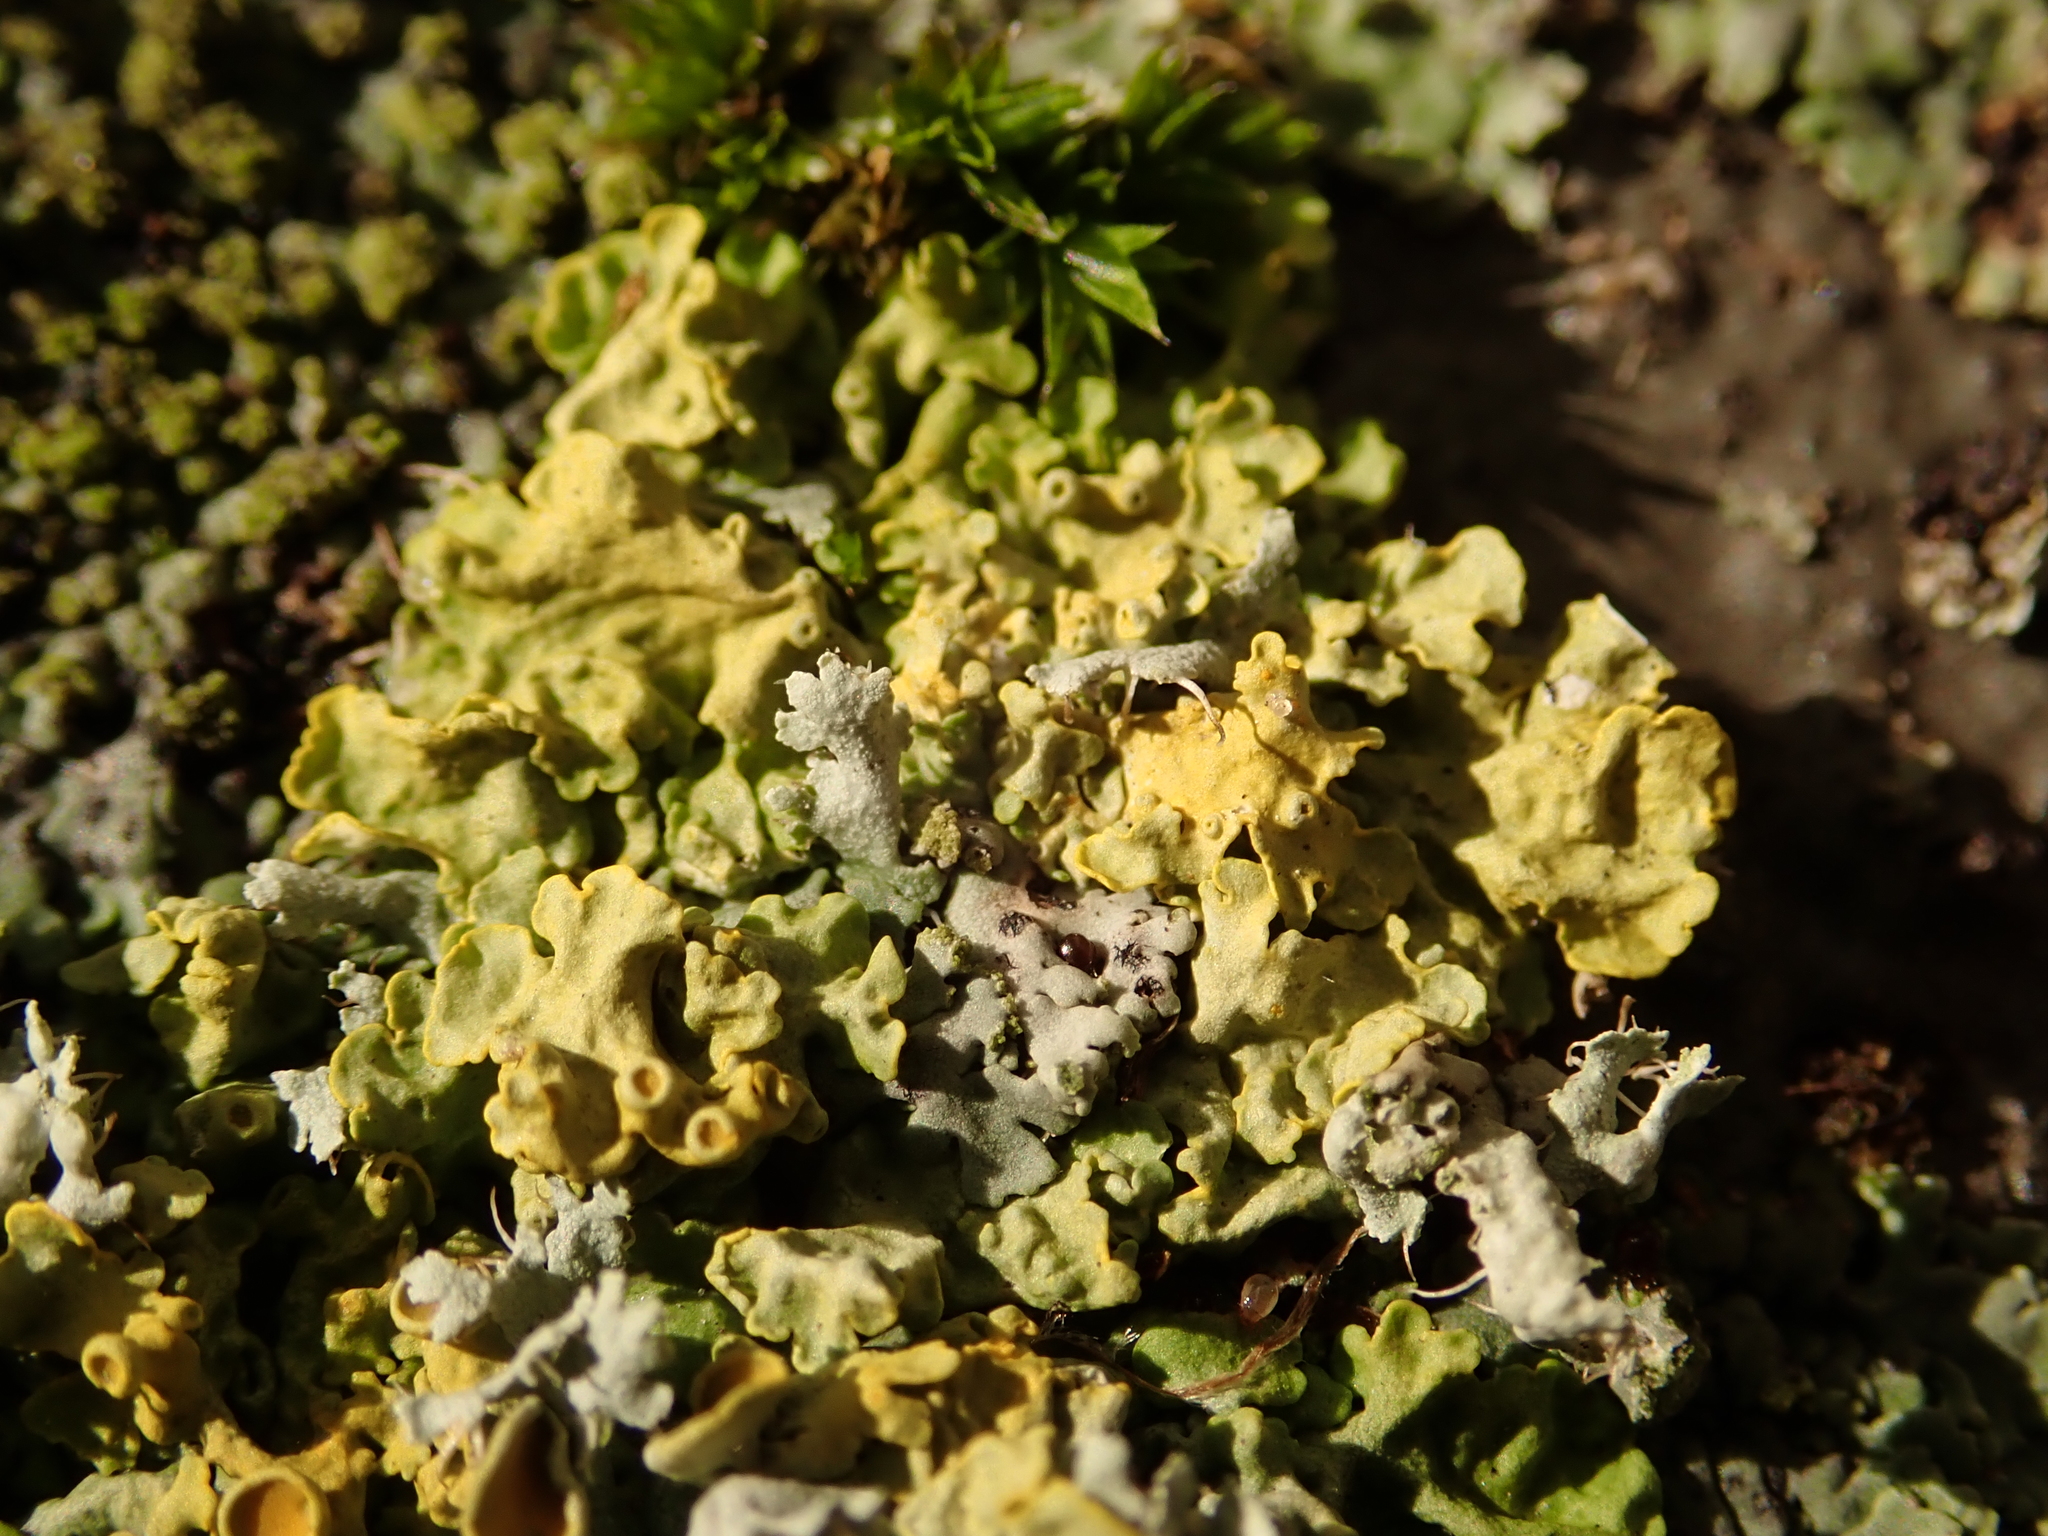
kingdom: Fungi
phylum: Ascomycota
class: Lecanoromycetes
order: Teloschistales
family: Teloschistaceae
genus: Xanthoria
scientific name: Xanthoria parietina
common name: Common orange lichen
